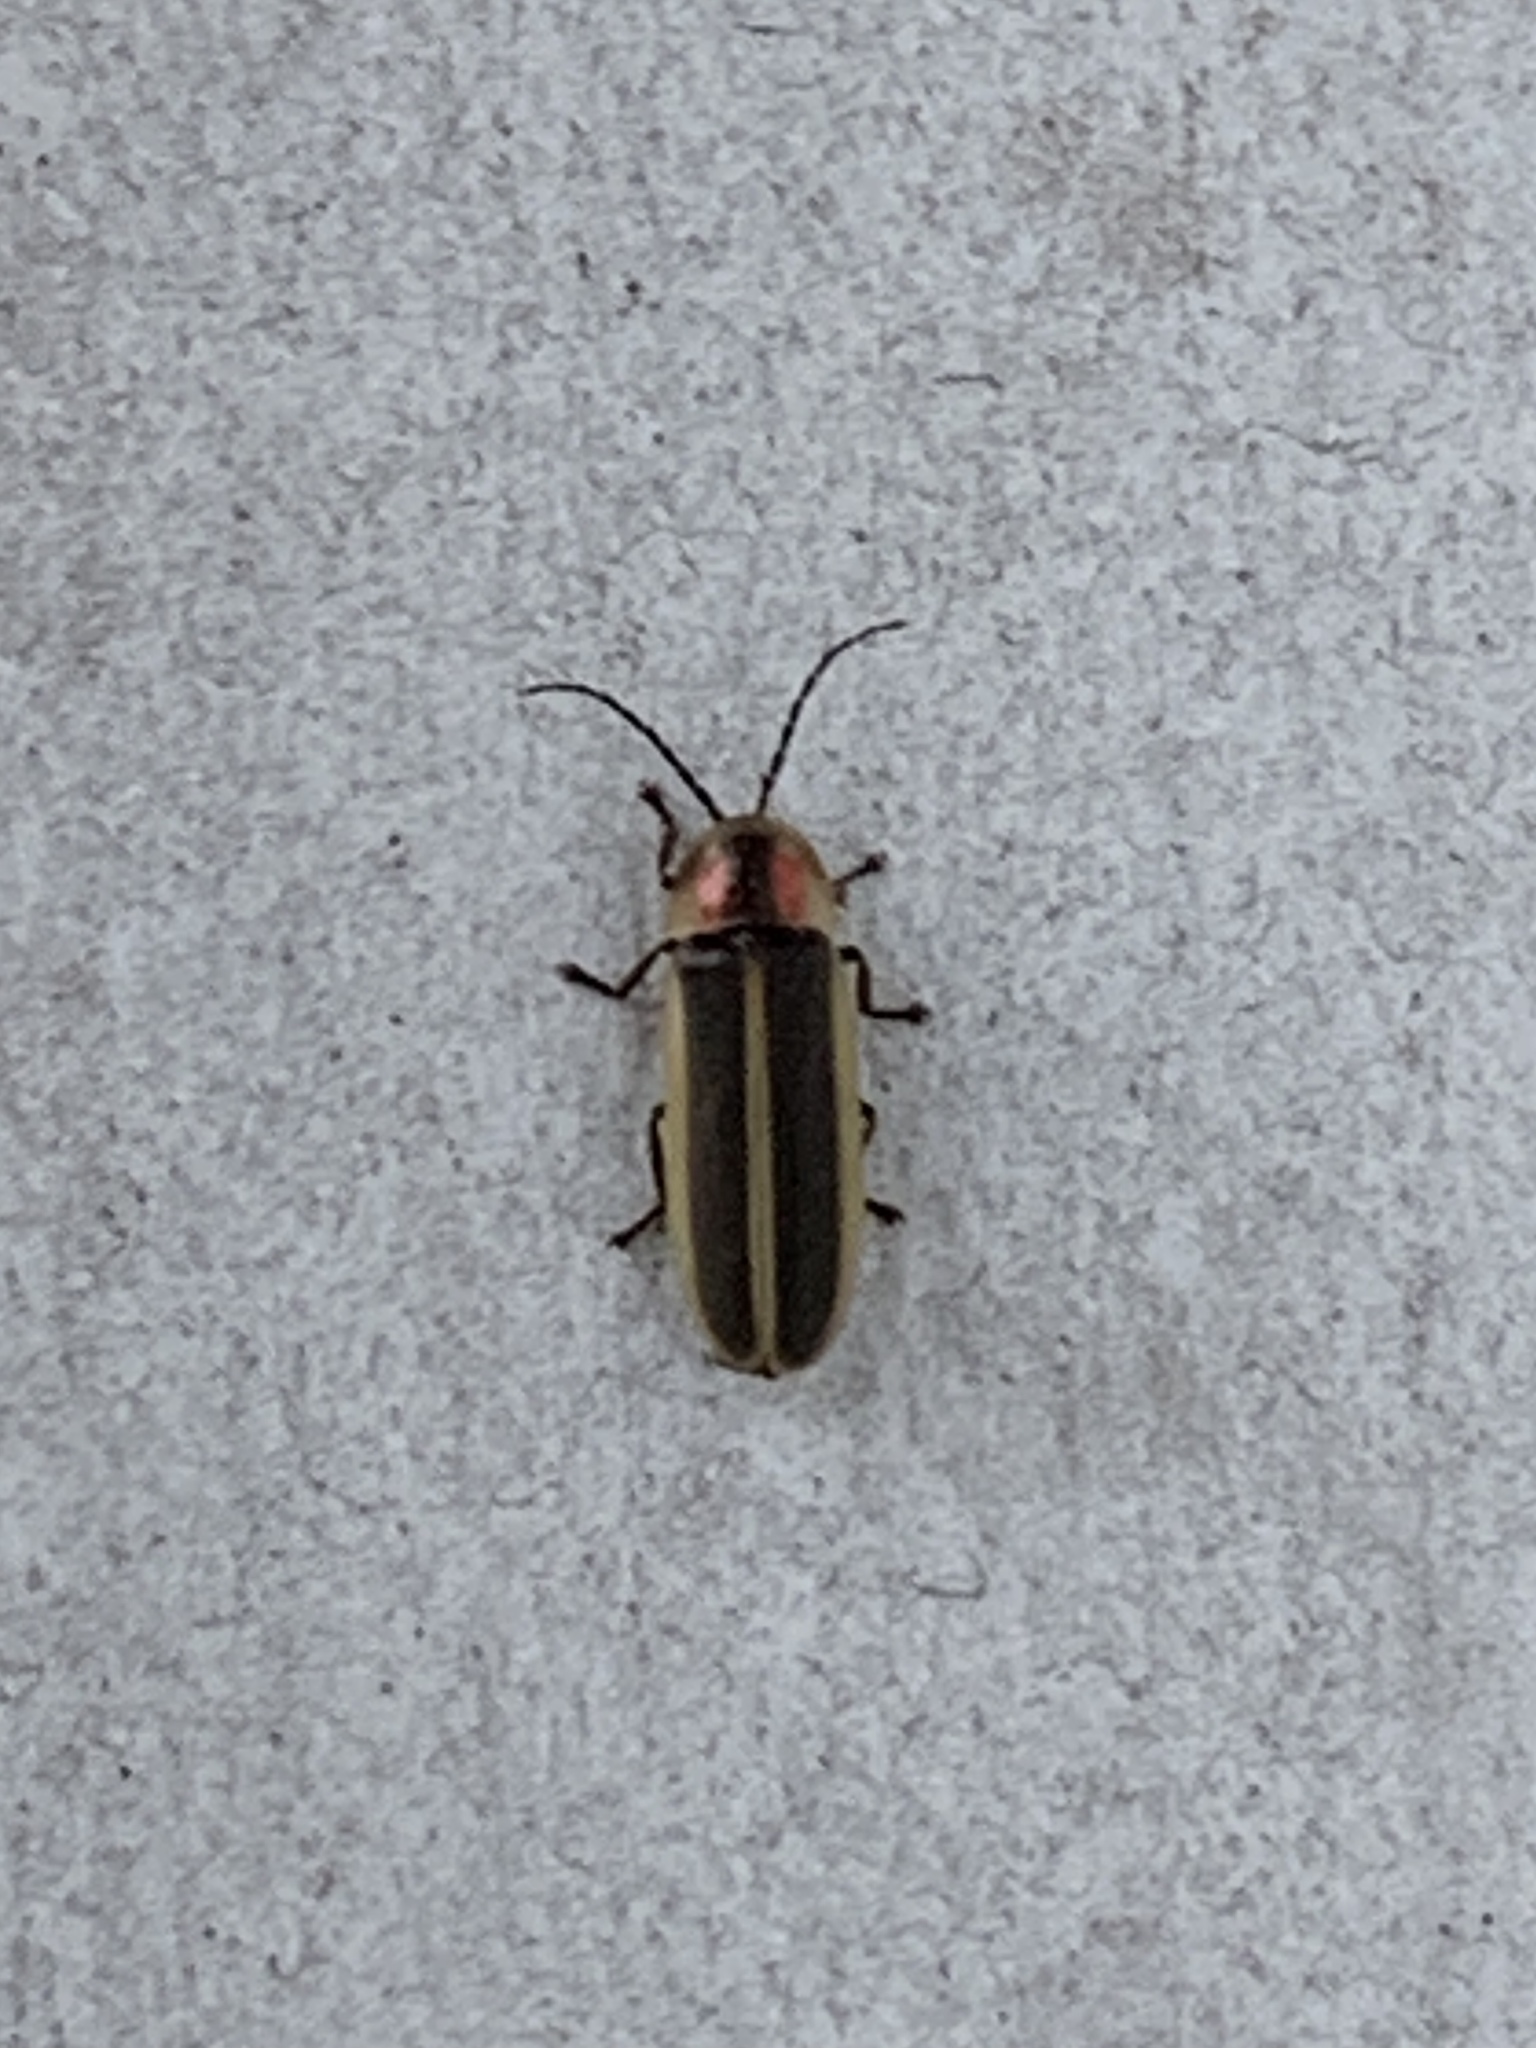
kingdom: Animalia
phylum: Arthropoda
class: Insecta
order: Coleoptera
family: Lampyridae
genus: Photinus
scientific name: Photinus pyralis
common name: Big dipper firefly
